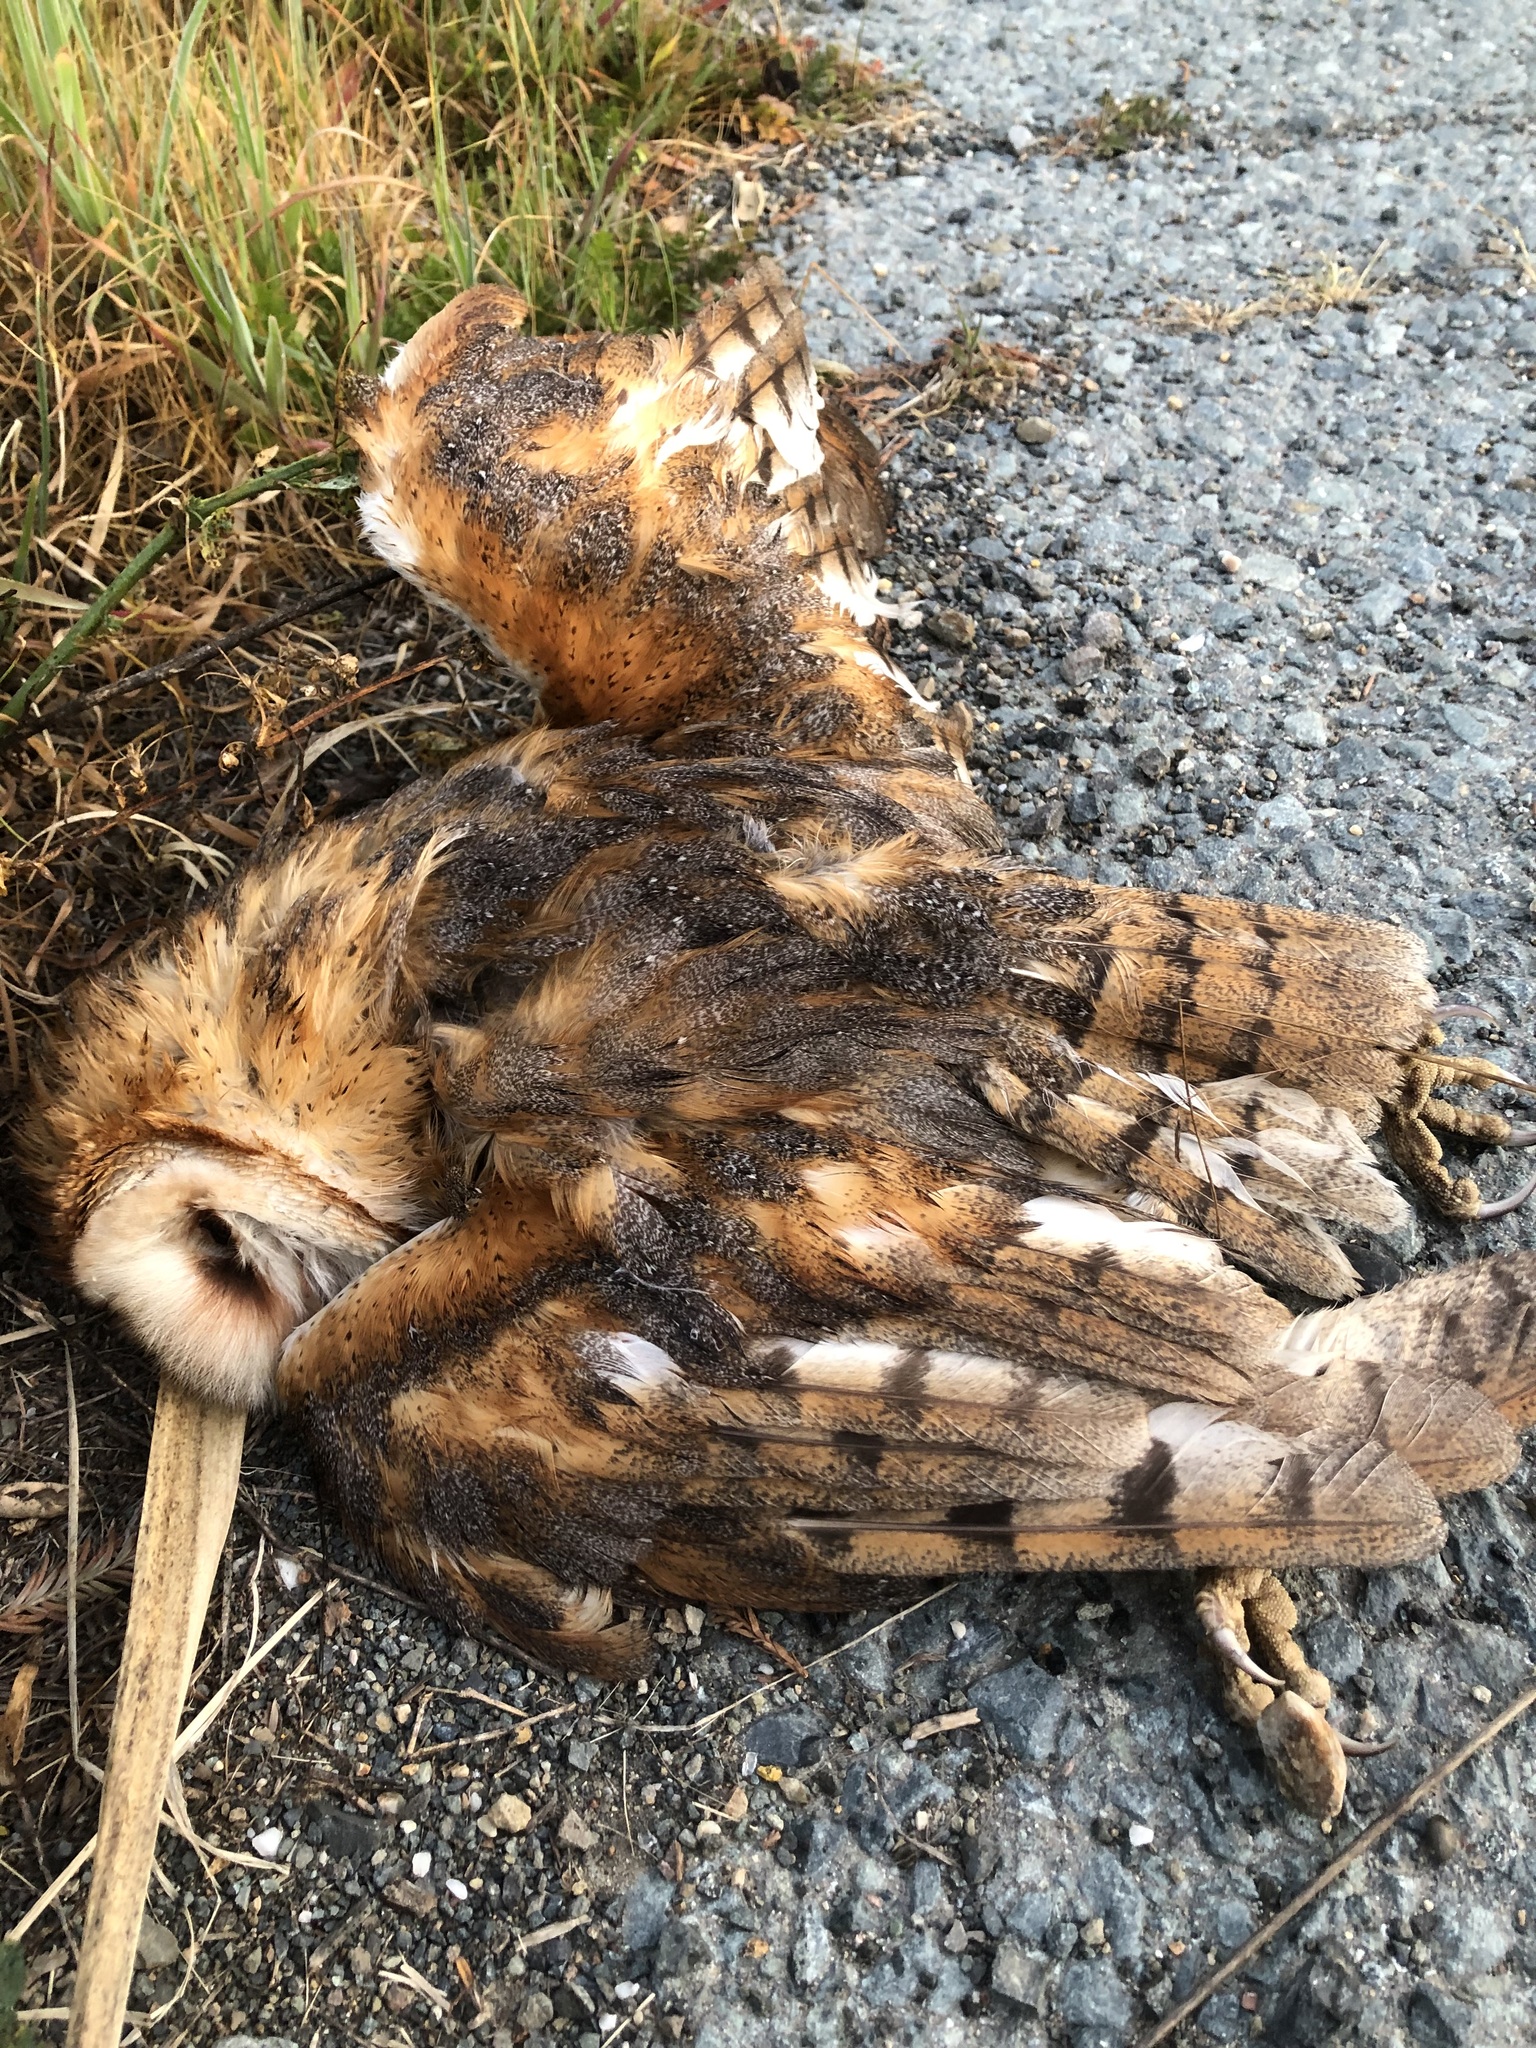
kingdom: Animalia
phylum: Chordata
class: Aves
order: Strigiformes
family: Tytonidae
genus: Tyto
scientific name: Tyto alba
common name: Barn owl
